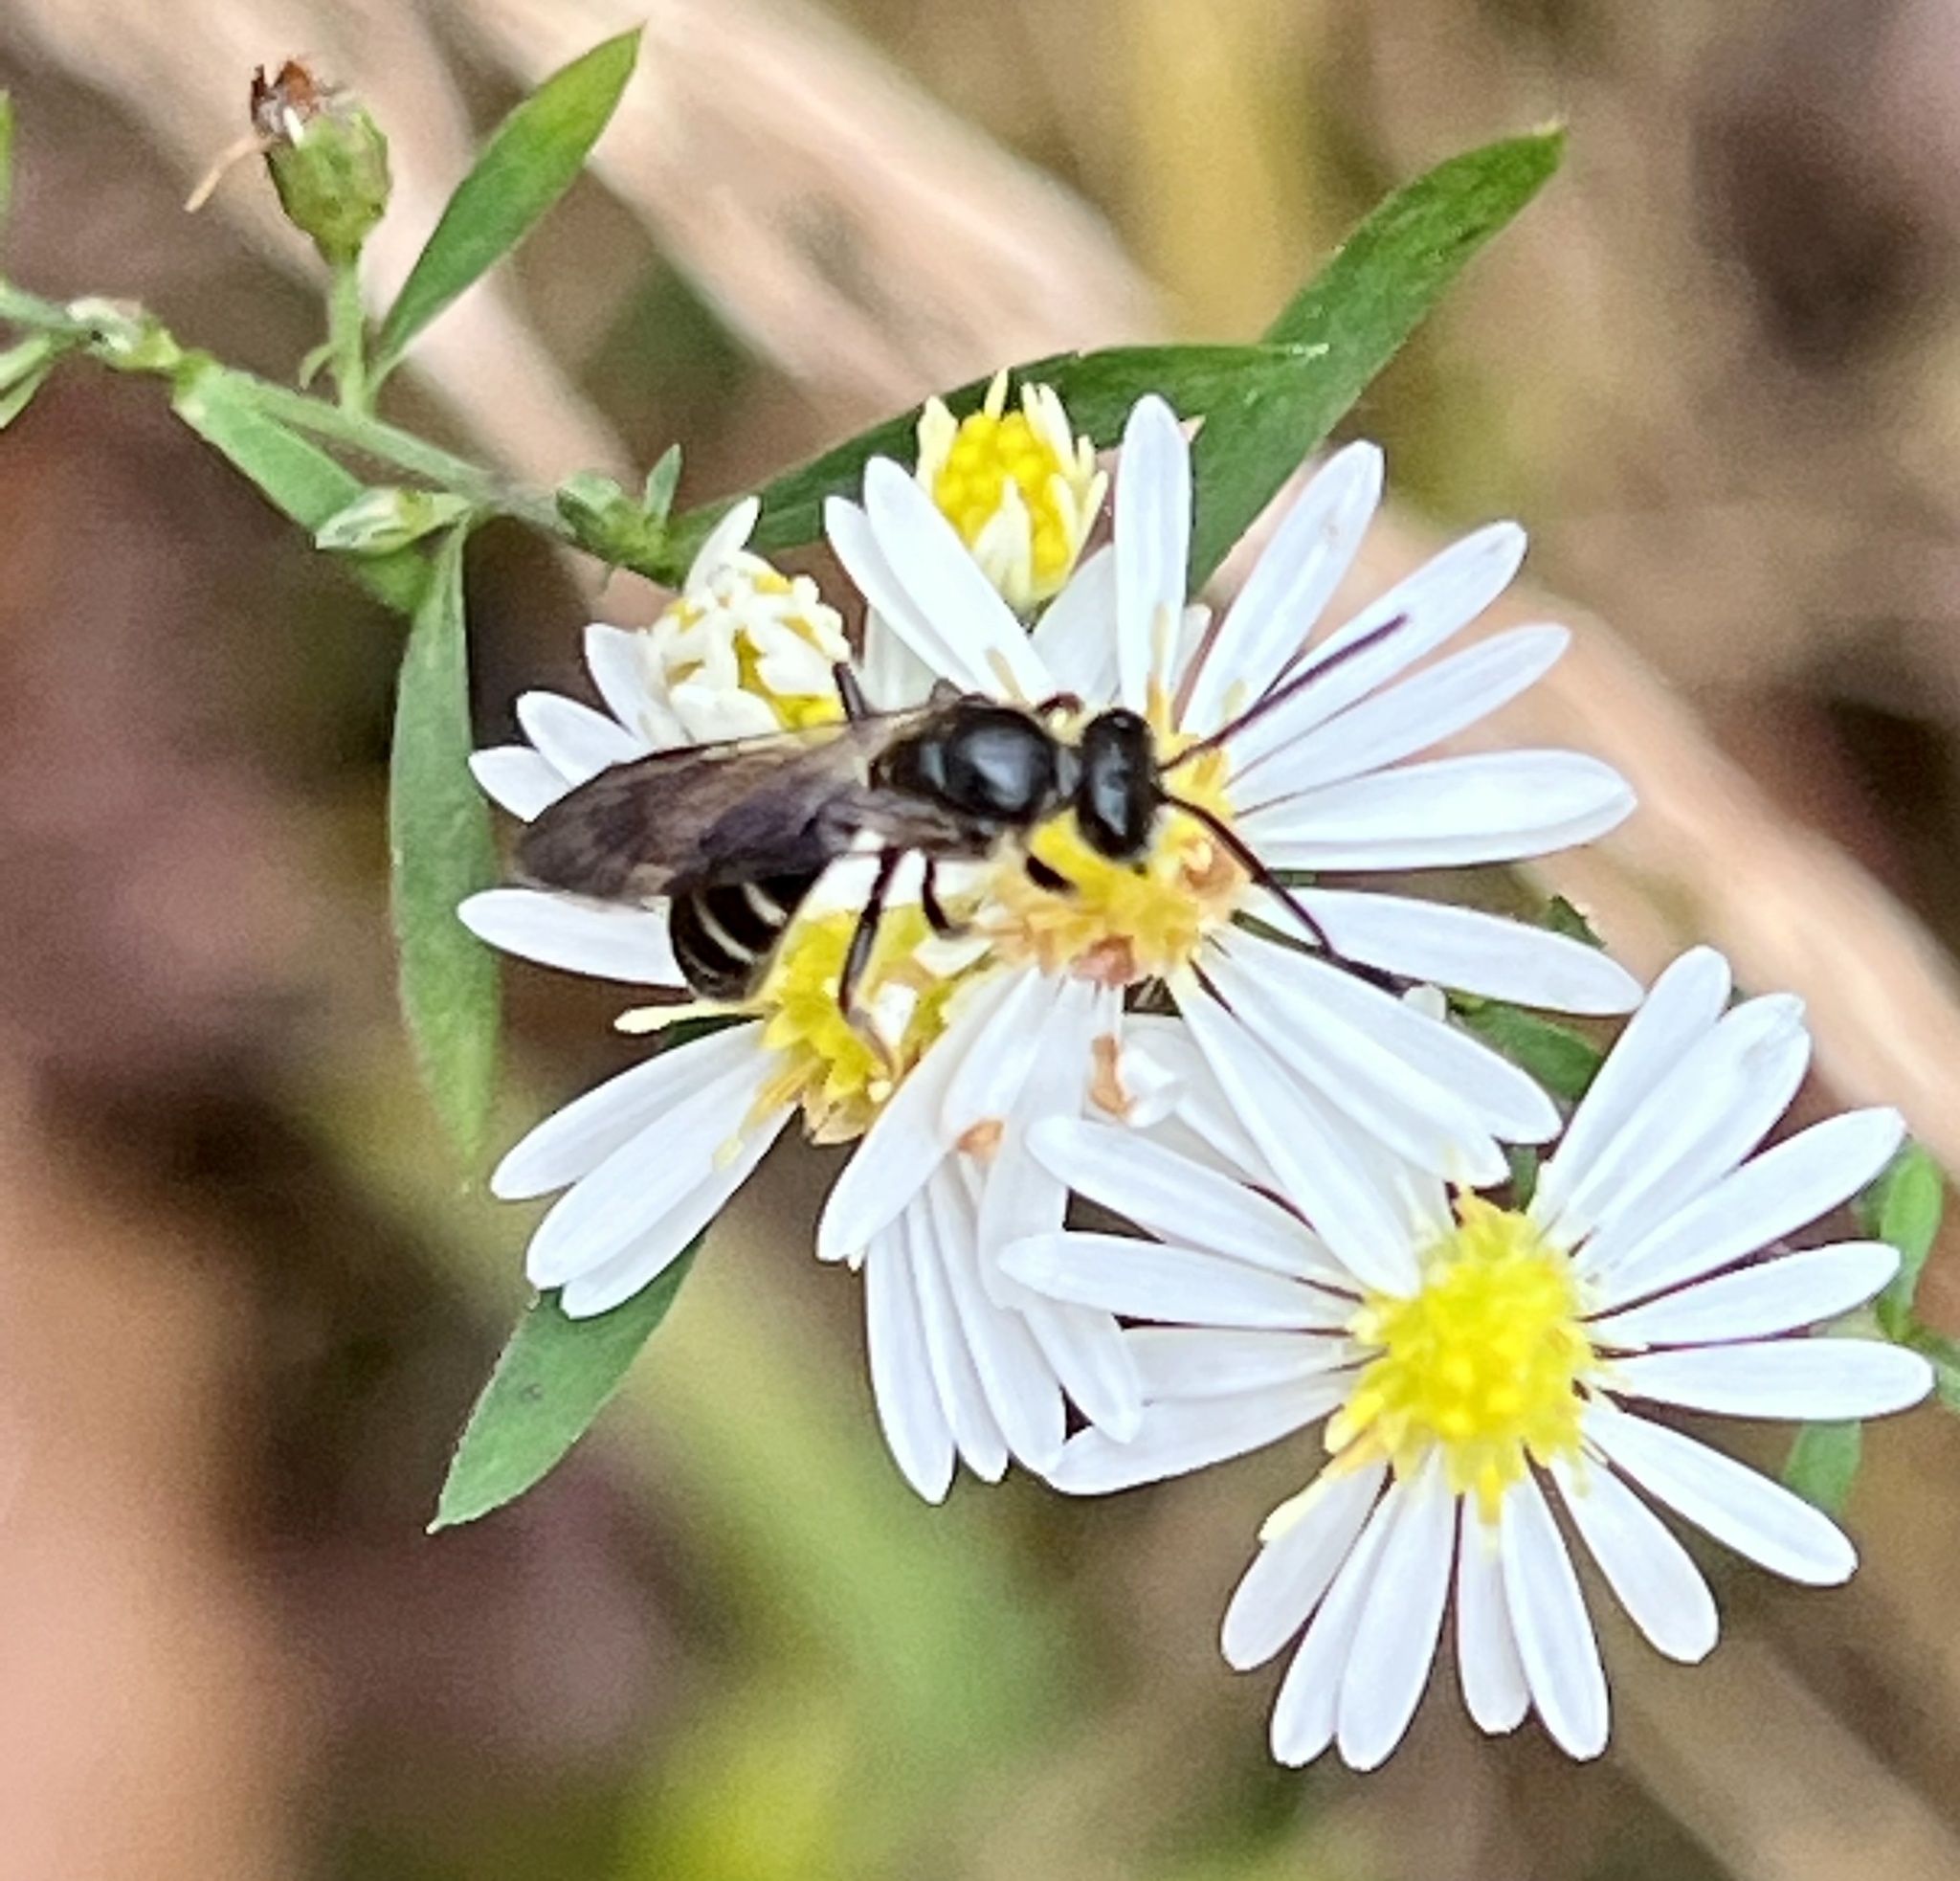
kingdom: Animalia
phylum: Arthropoda
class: Insecta
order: Hymenoptera
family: Halictidae
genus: Lasioglossum
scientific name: Lasioglossum fuscipenne
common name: Brown-winged sweat bee
